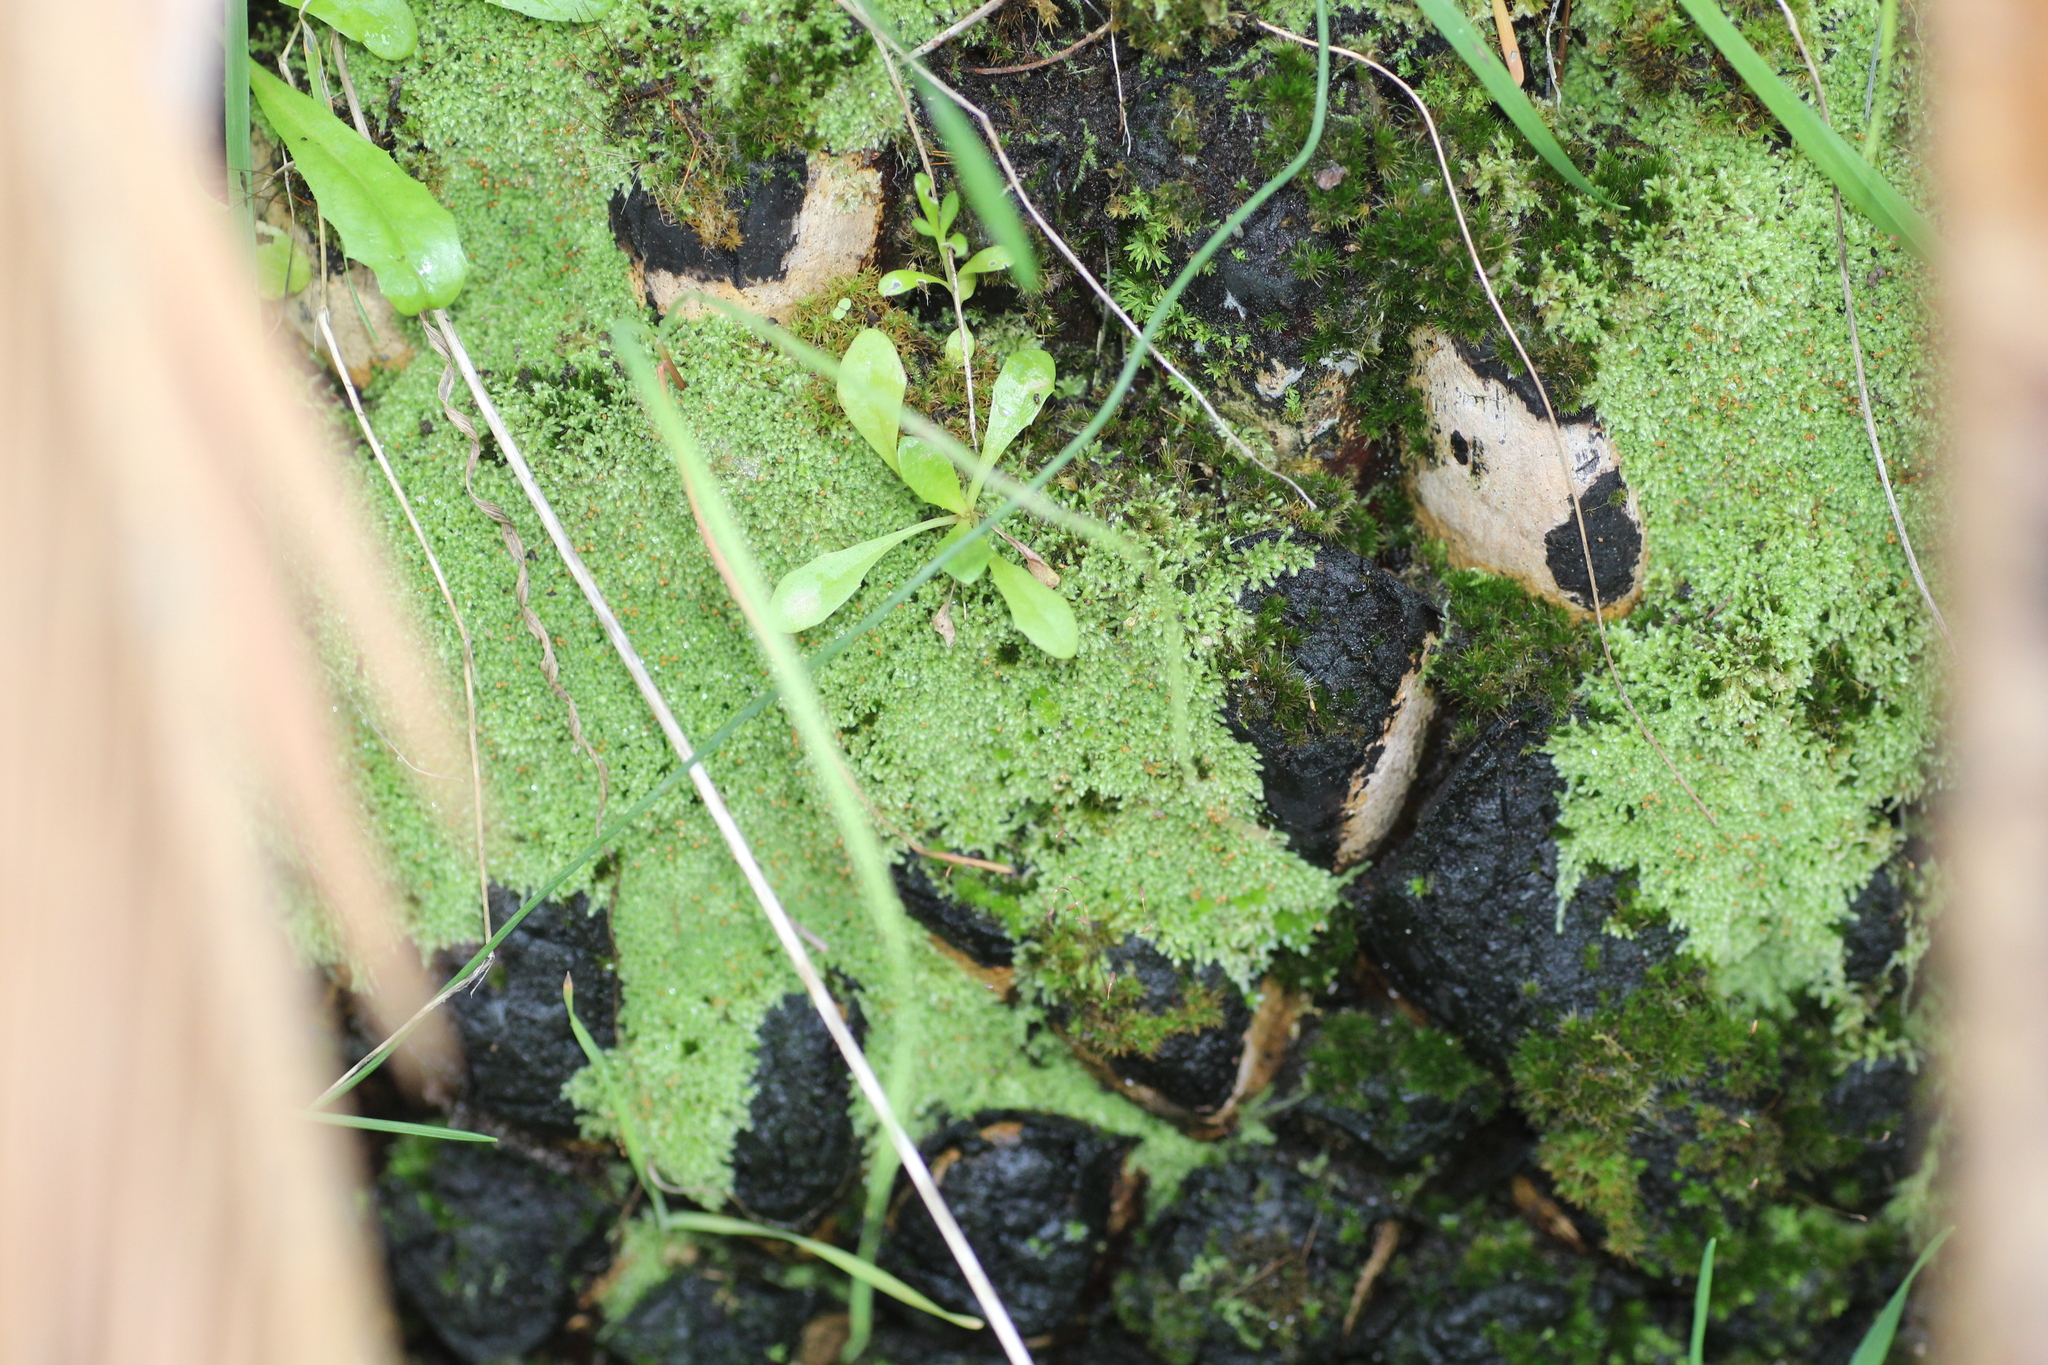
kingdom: Plantae
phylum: Bryophyta
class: Bryopsida
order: Hypnales
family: Fabroniaceae
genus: Fabronia
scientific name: Fabronia hampeana
